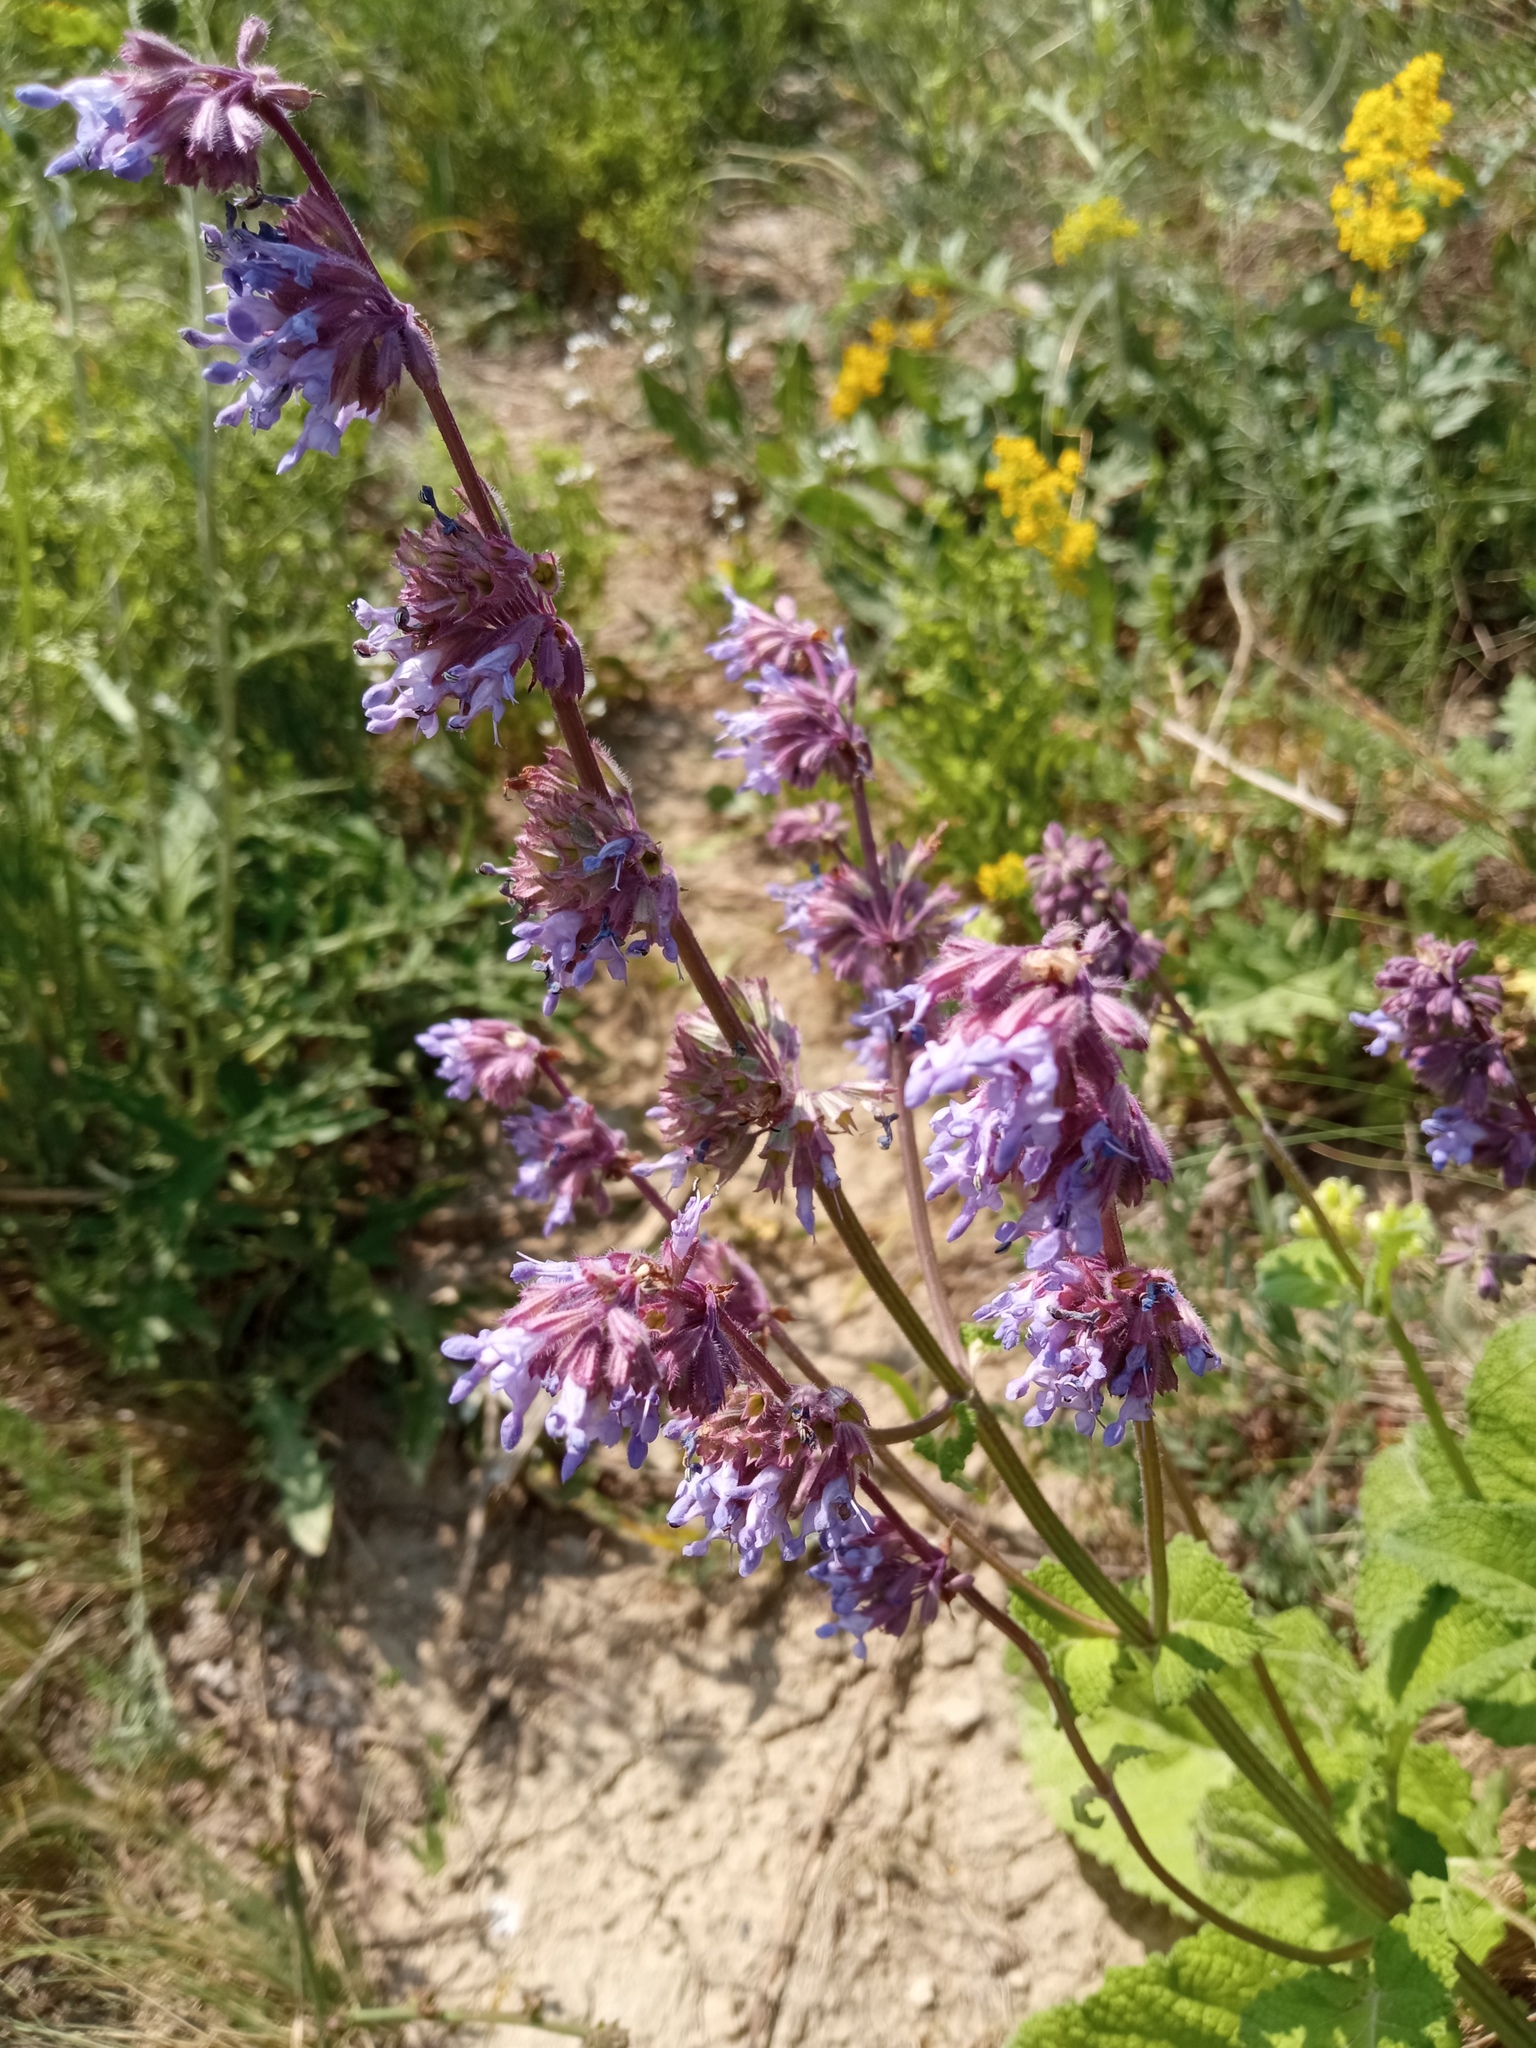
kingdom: Plantae
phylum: Tracheophyta
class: Magnoliopsida
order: Lamiales
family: Lamiaceae
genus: Salvia
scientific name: Salvia verticillata
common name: Whorled clary
